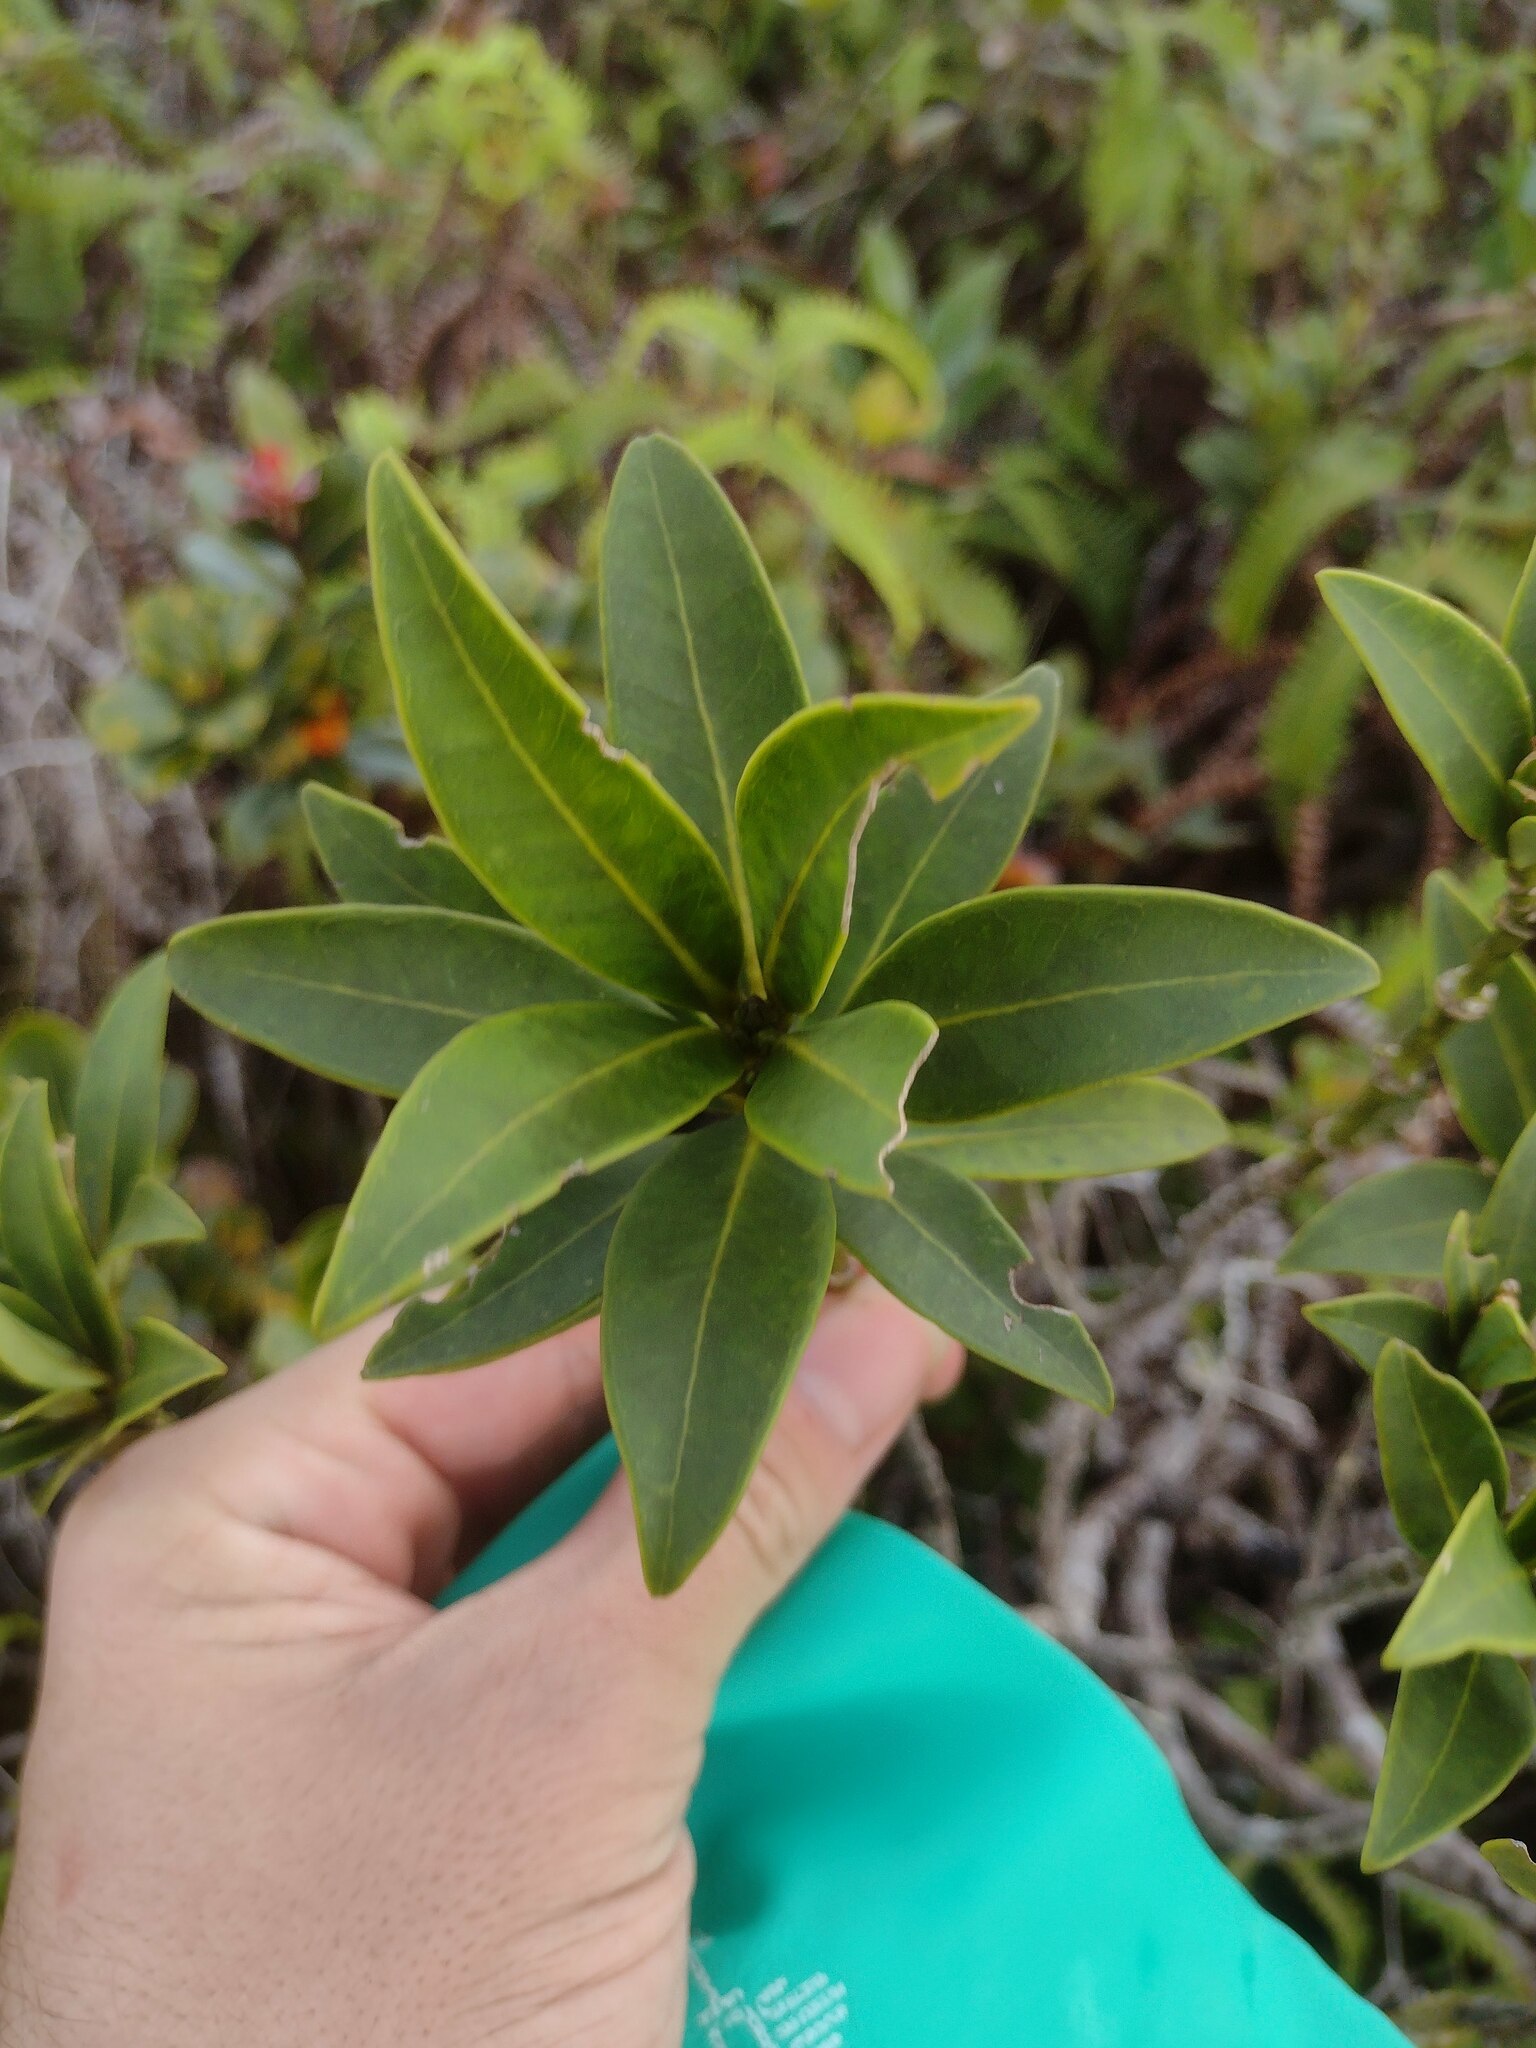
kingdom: Plantae
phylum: Tracheophyta
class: Magnoliopsida
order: Sapindales
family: Rutaceae
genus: Melicope
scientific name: Melicope waialealae
